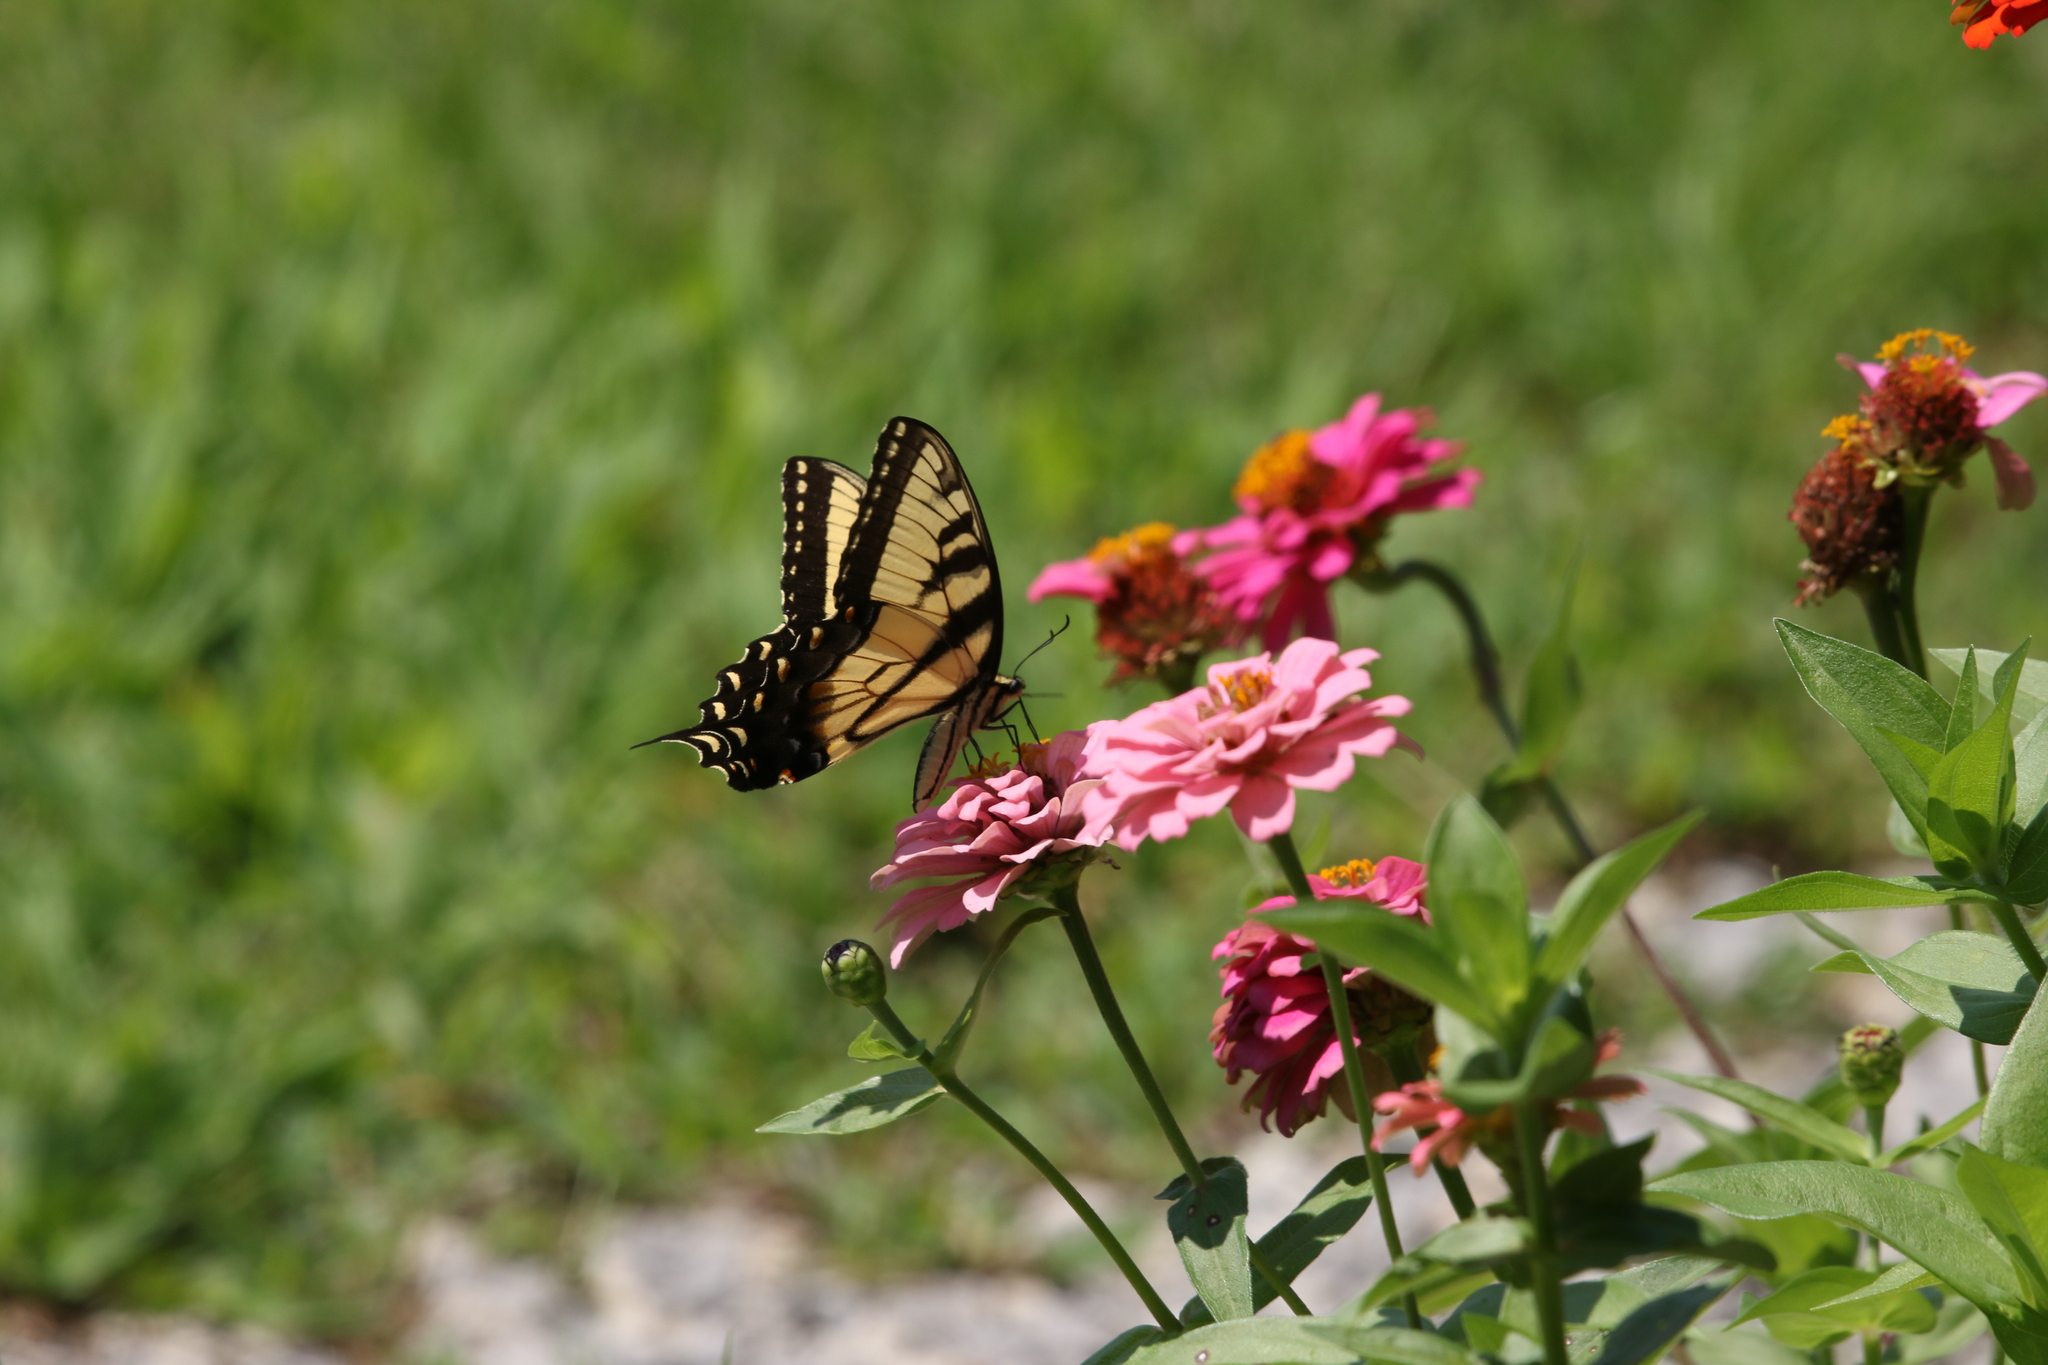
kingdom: Animalia
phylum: Arthropoda
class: Insecta
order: Lepidoptera
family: Papilionidae
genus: Papilio
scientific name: Papilio glaucus
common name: Tiger swallowtail
